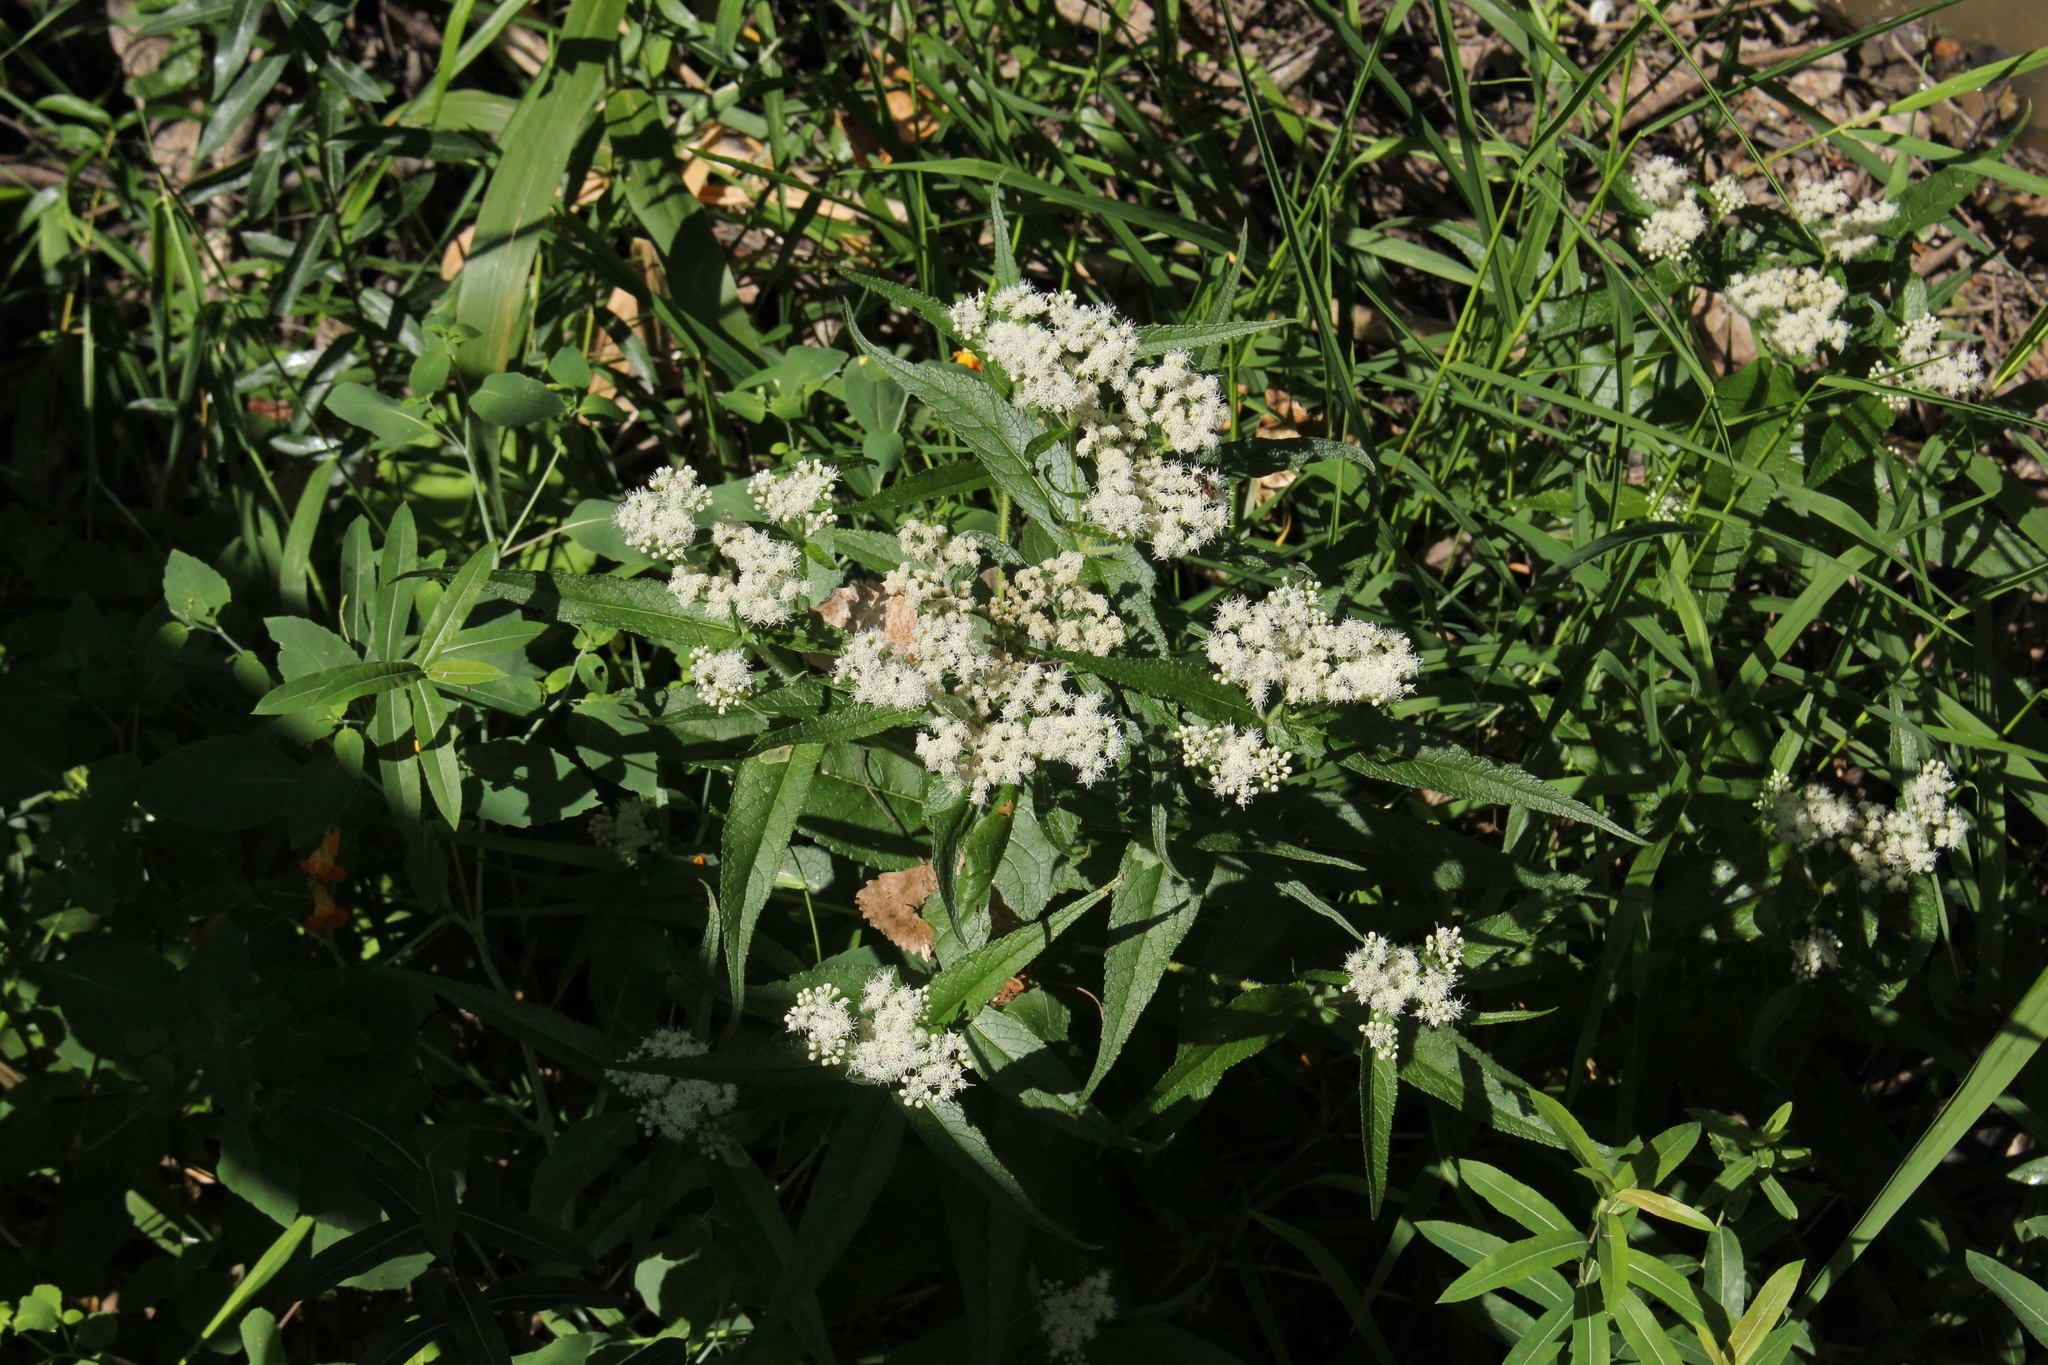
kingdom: Plantae
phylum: Tracheophyta
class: Magnoliopsida
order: Asterales
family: Asteraceae
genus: Eupatorium
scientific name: Eupatorium perfoliatum
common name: Boneset
